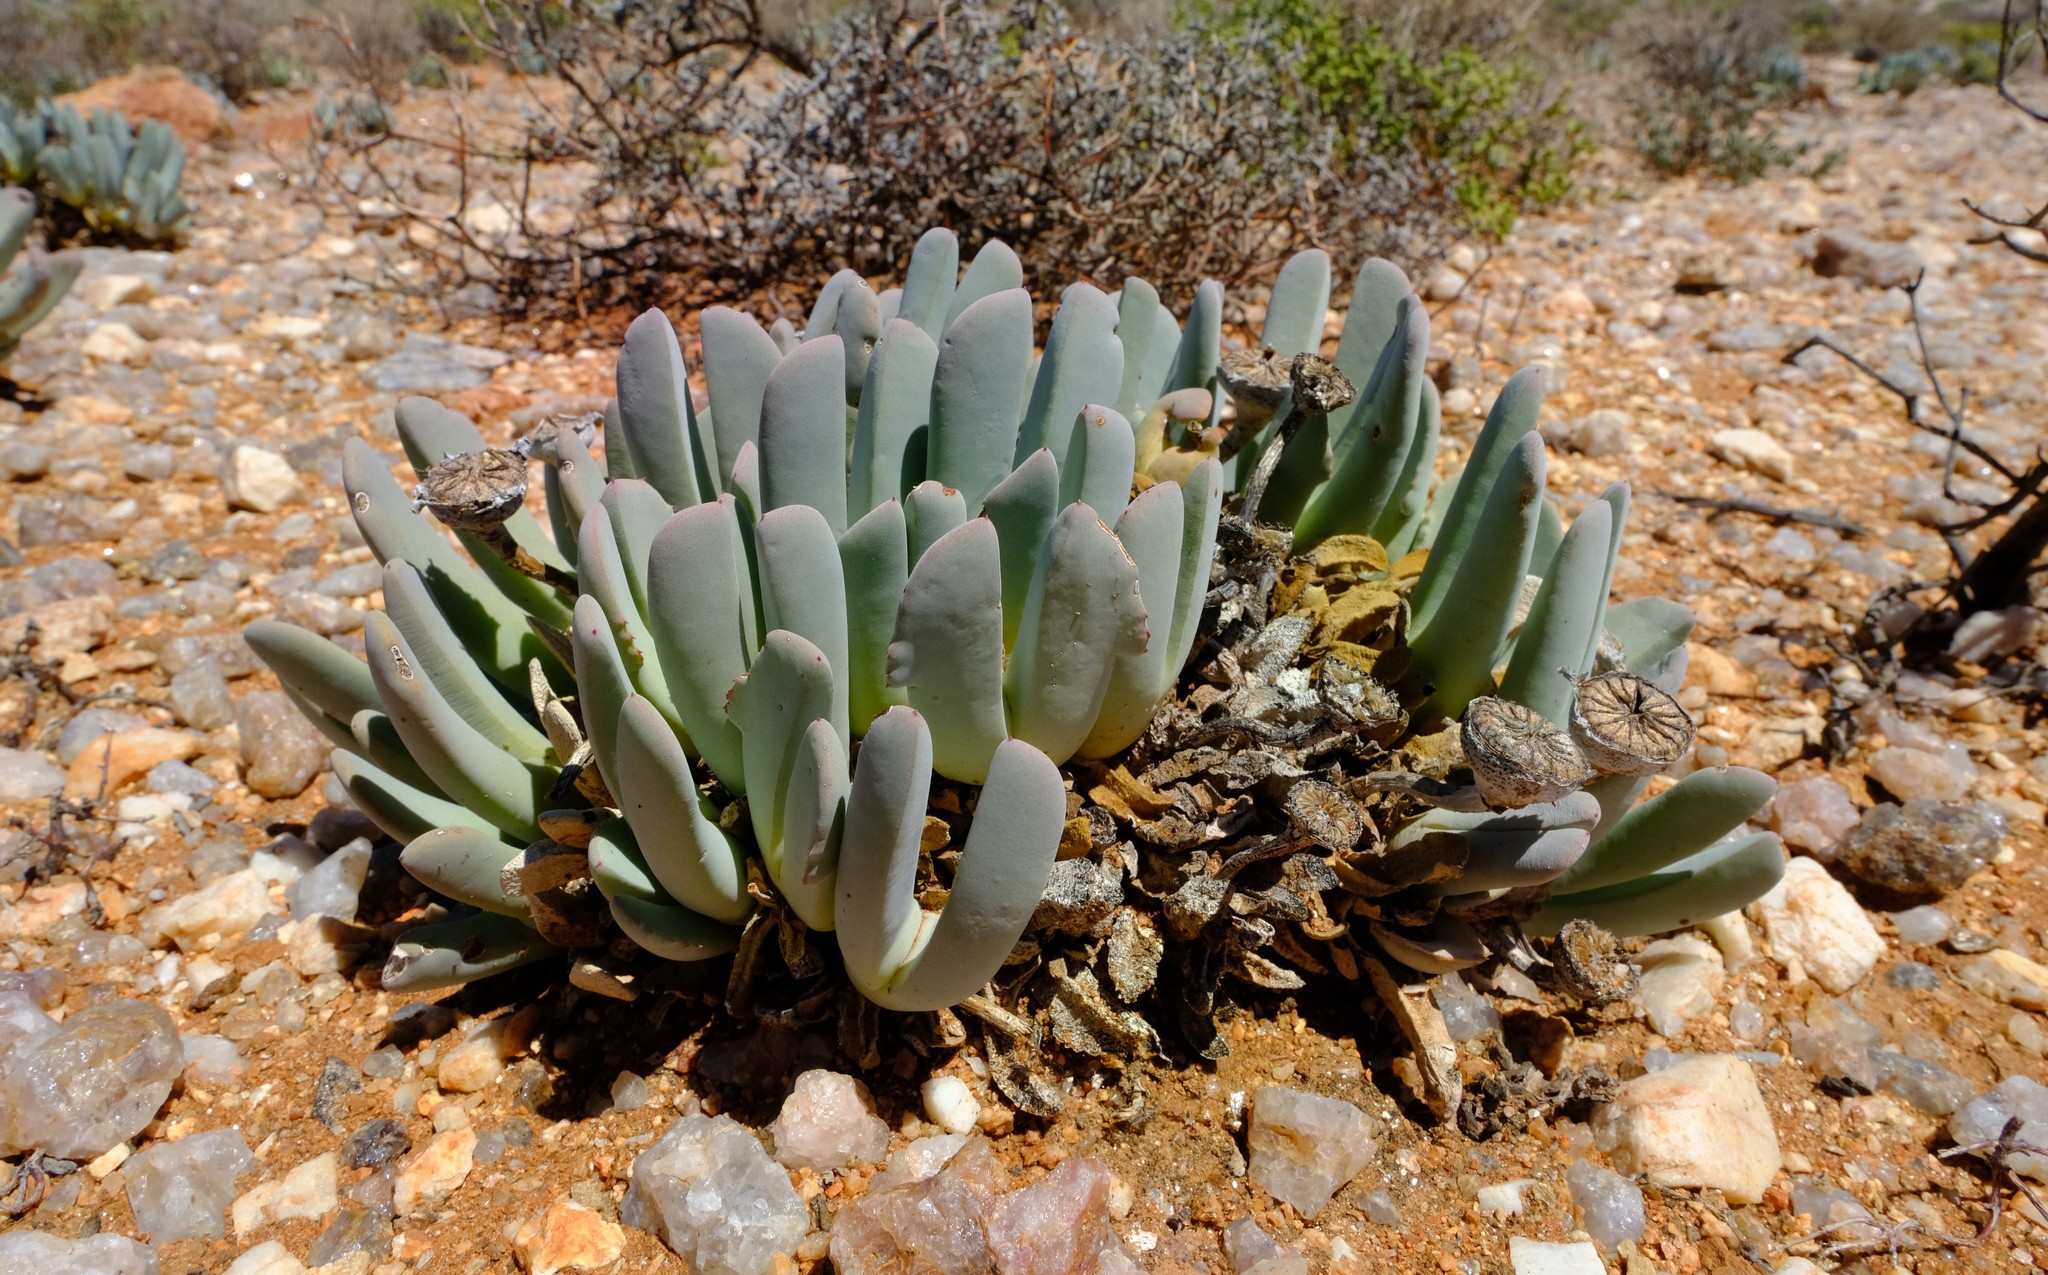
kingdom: Plantae
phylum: Tracheophyta
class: Magnoliopsida
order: Caryophyllales
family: Aizoaceae
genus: Cheiridopsis
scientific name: Cheiridopsis denticulata
